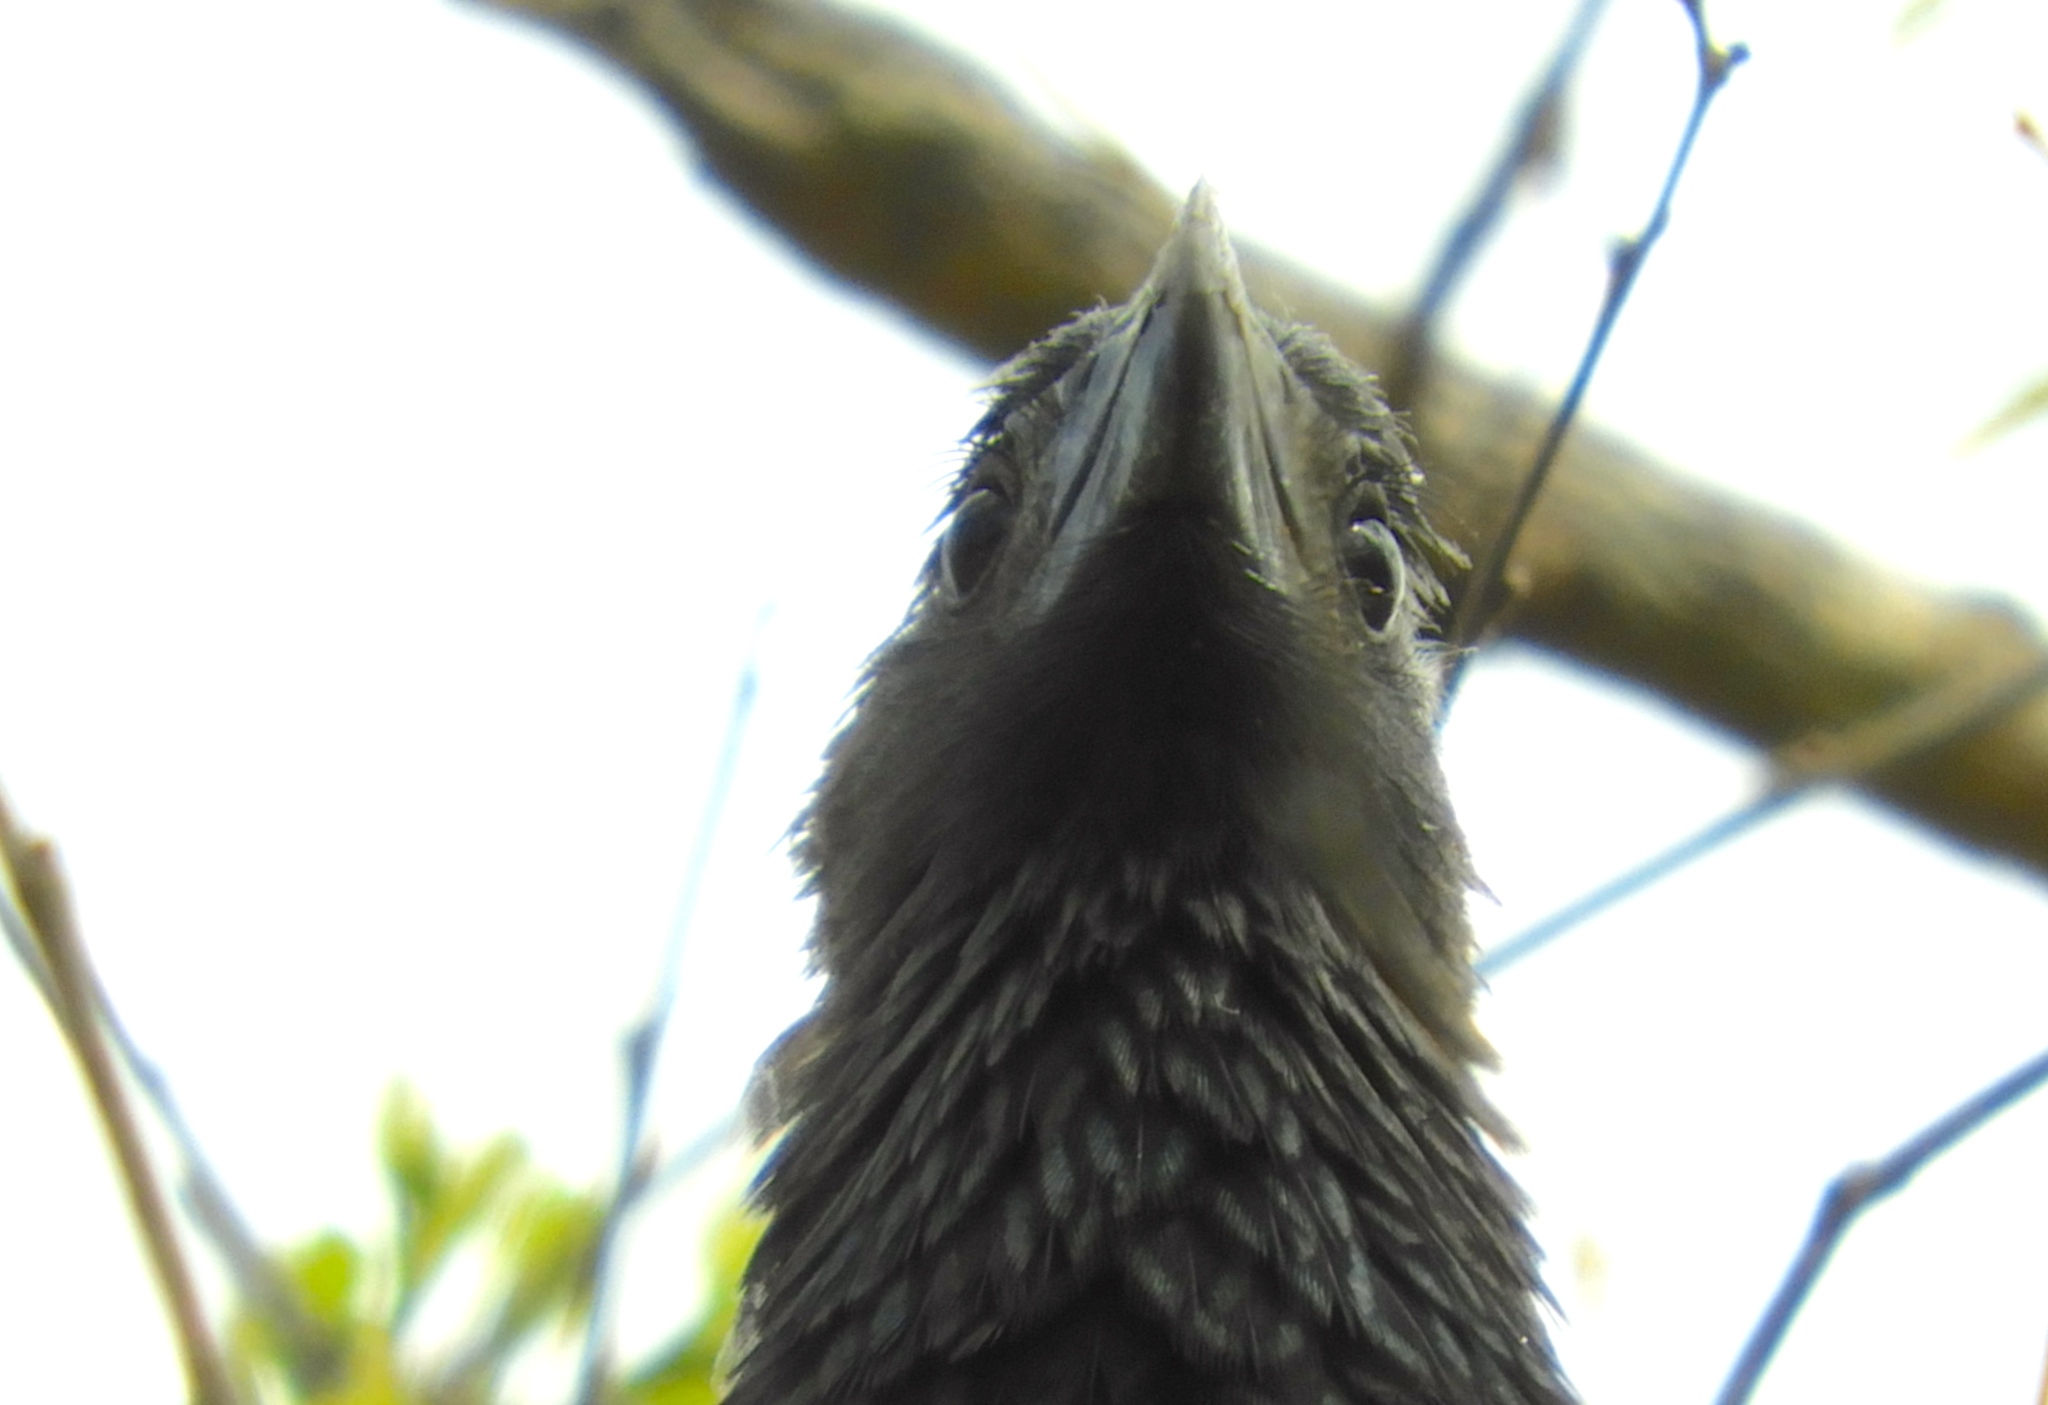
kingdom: Animalia
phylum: Chordata
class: Aves
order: Cuculiformes
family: Cuculidae
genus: Crotophaga
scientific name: Crotophaga sulcirostris
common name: Groove-billed ani
